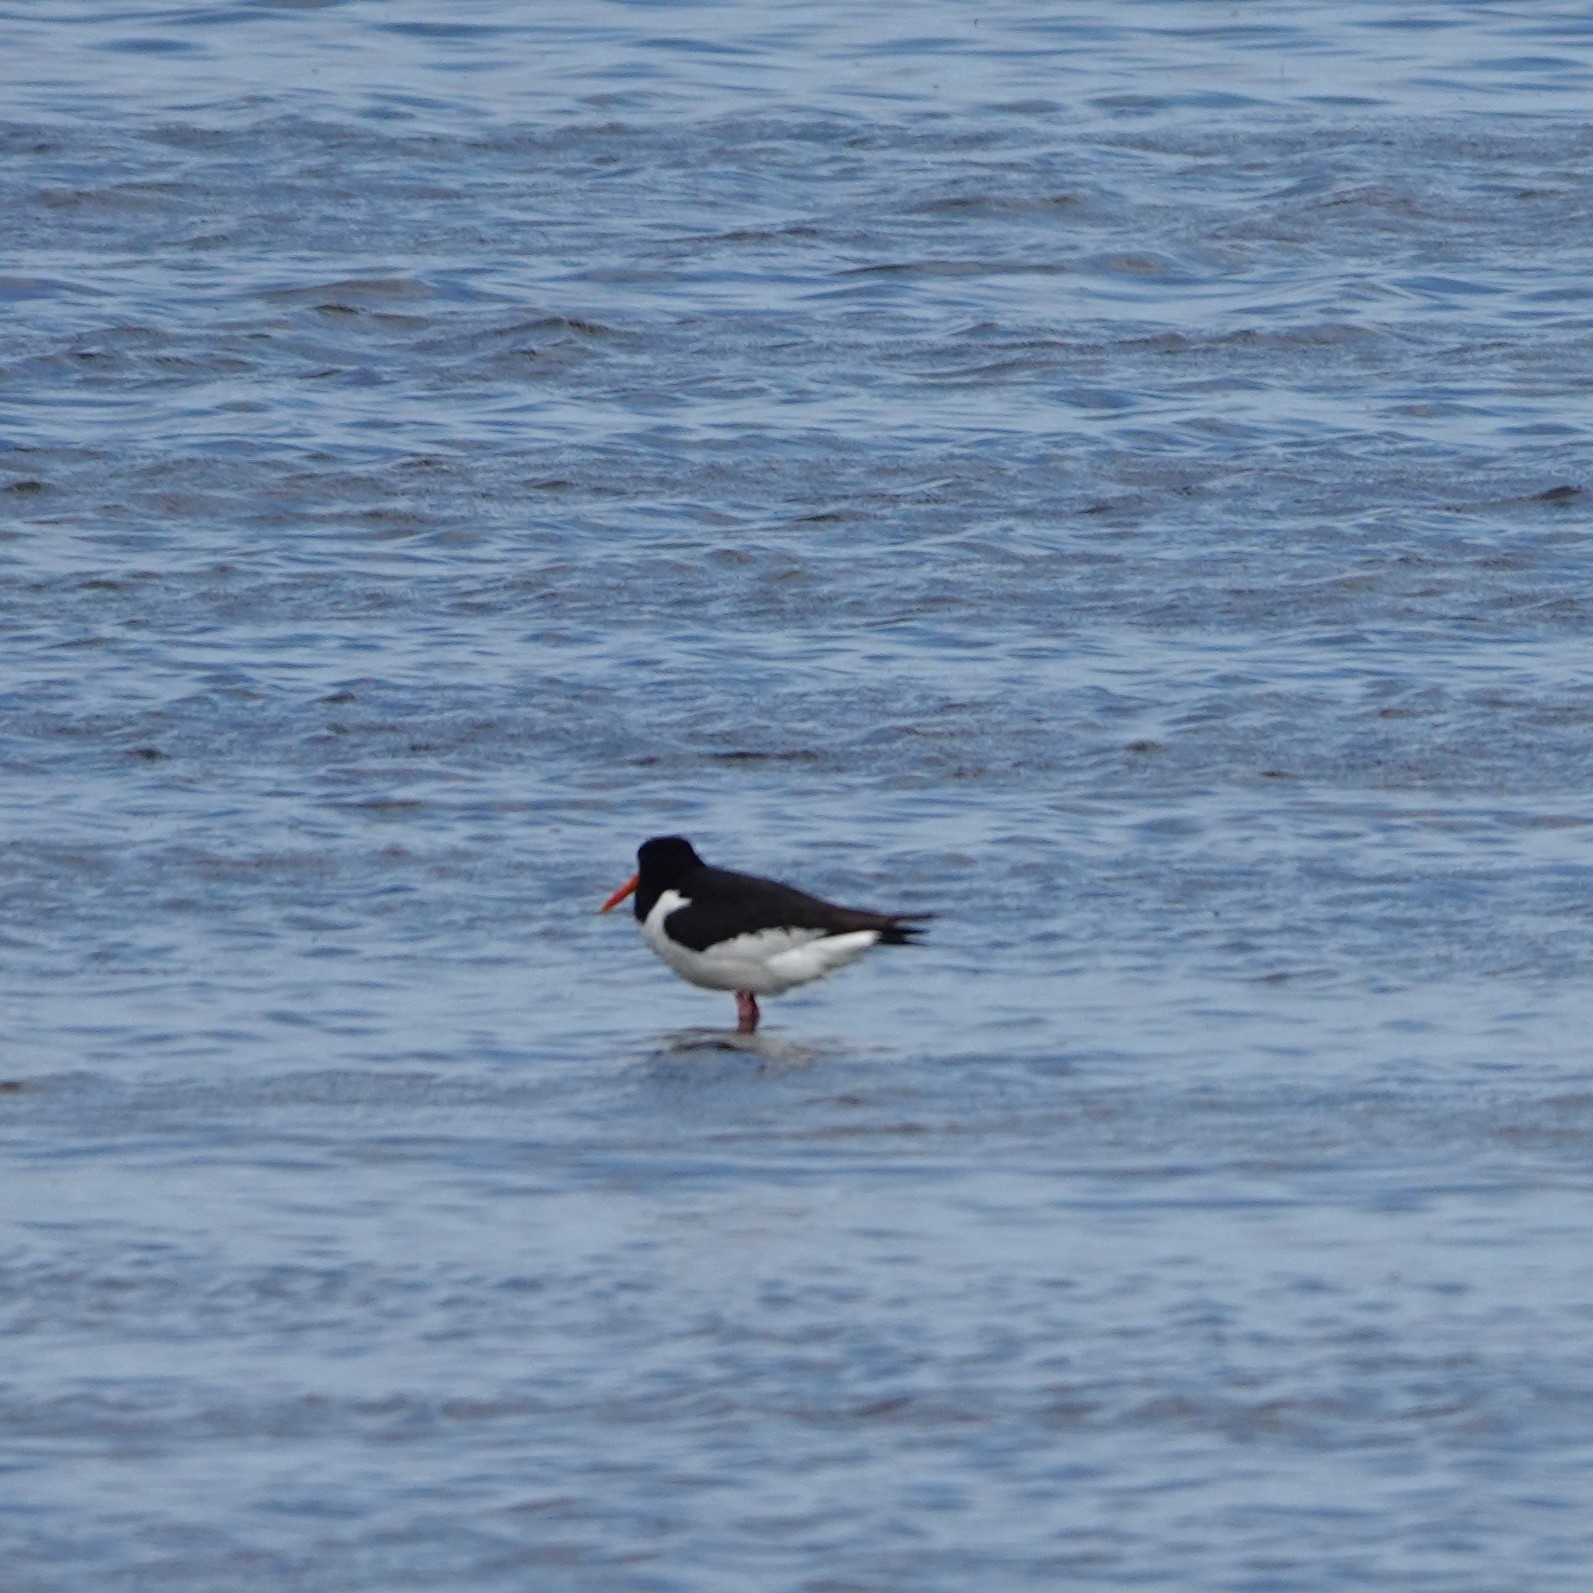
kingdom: Animalia
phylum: Chordata
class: Aves
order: Charadriiformes
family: Haematopodidae
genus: Haematopus
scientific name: Haematopus ostralegus
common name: Eurasian oystercatcher
